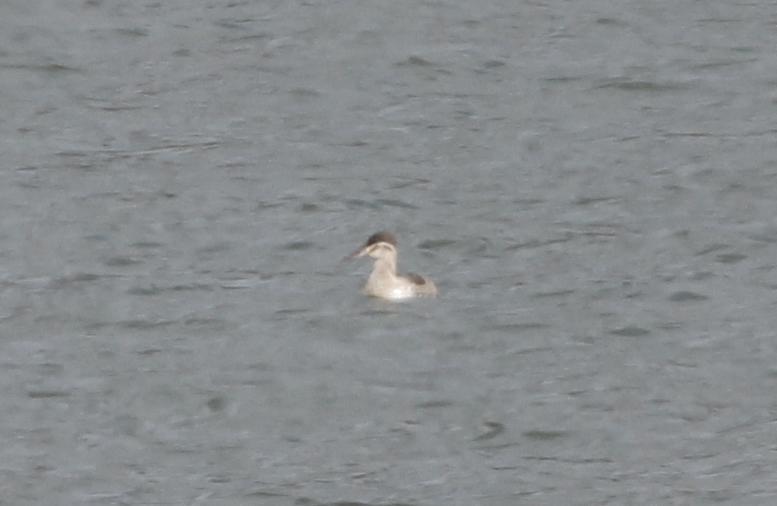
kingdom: Animalia
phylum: Chordata
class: Aves
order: Anseriformes
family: Anatidae
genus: Oxyura
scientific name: Oxyura jamaicensis
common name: Ruddy duck
